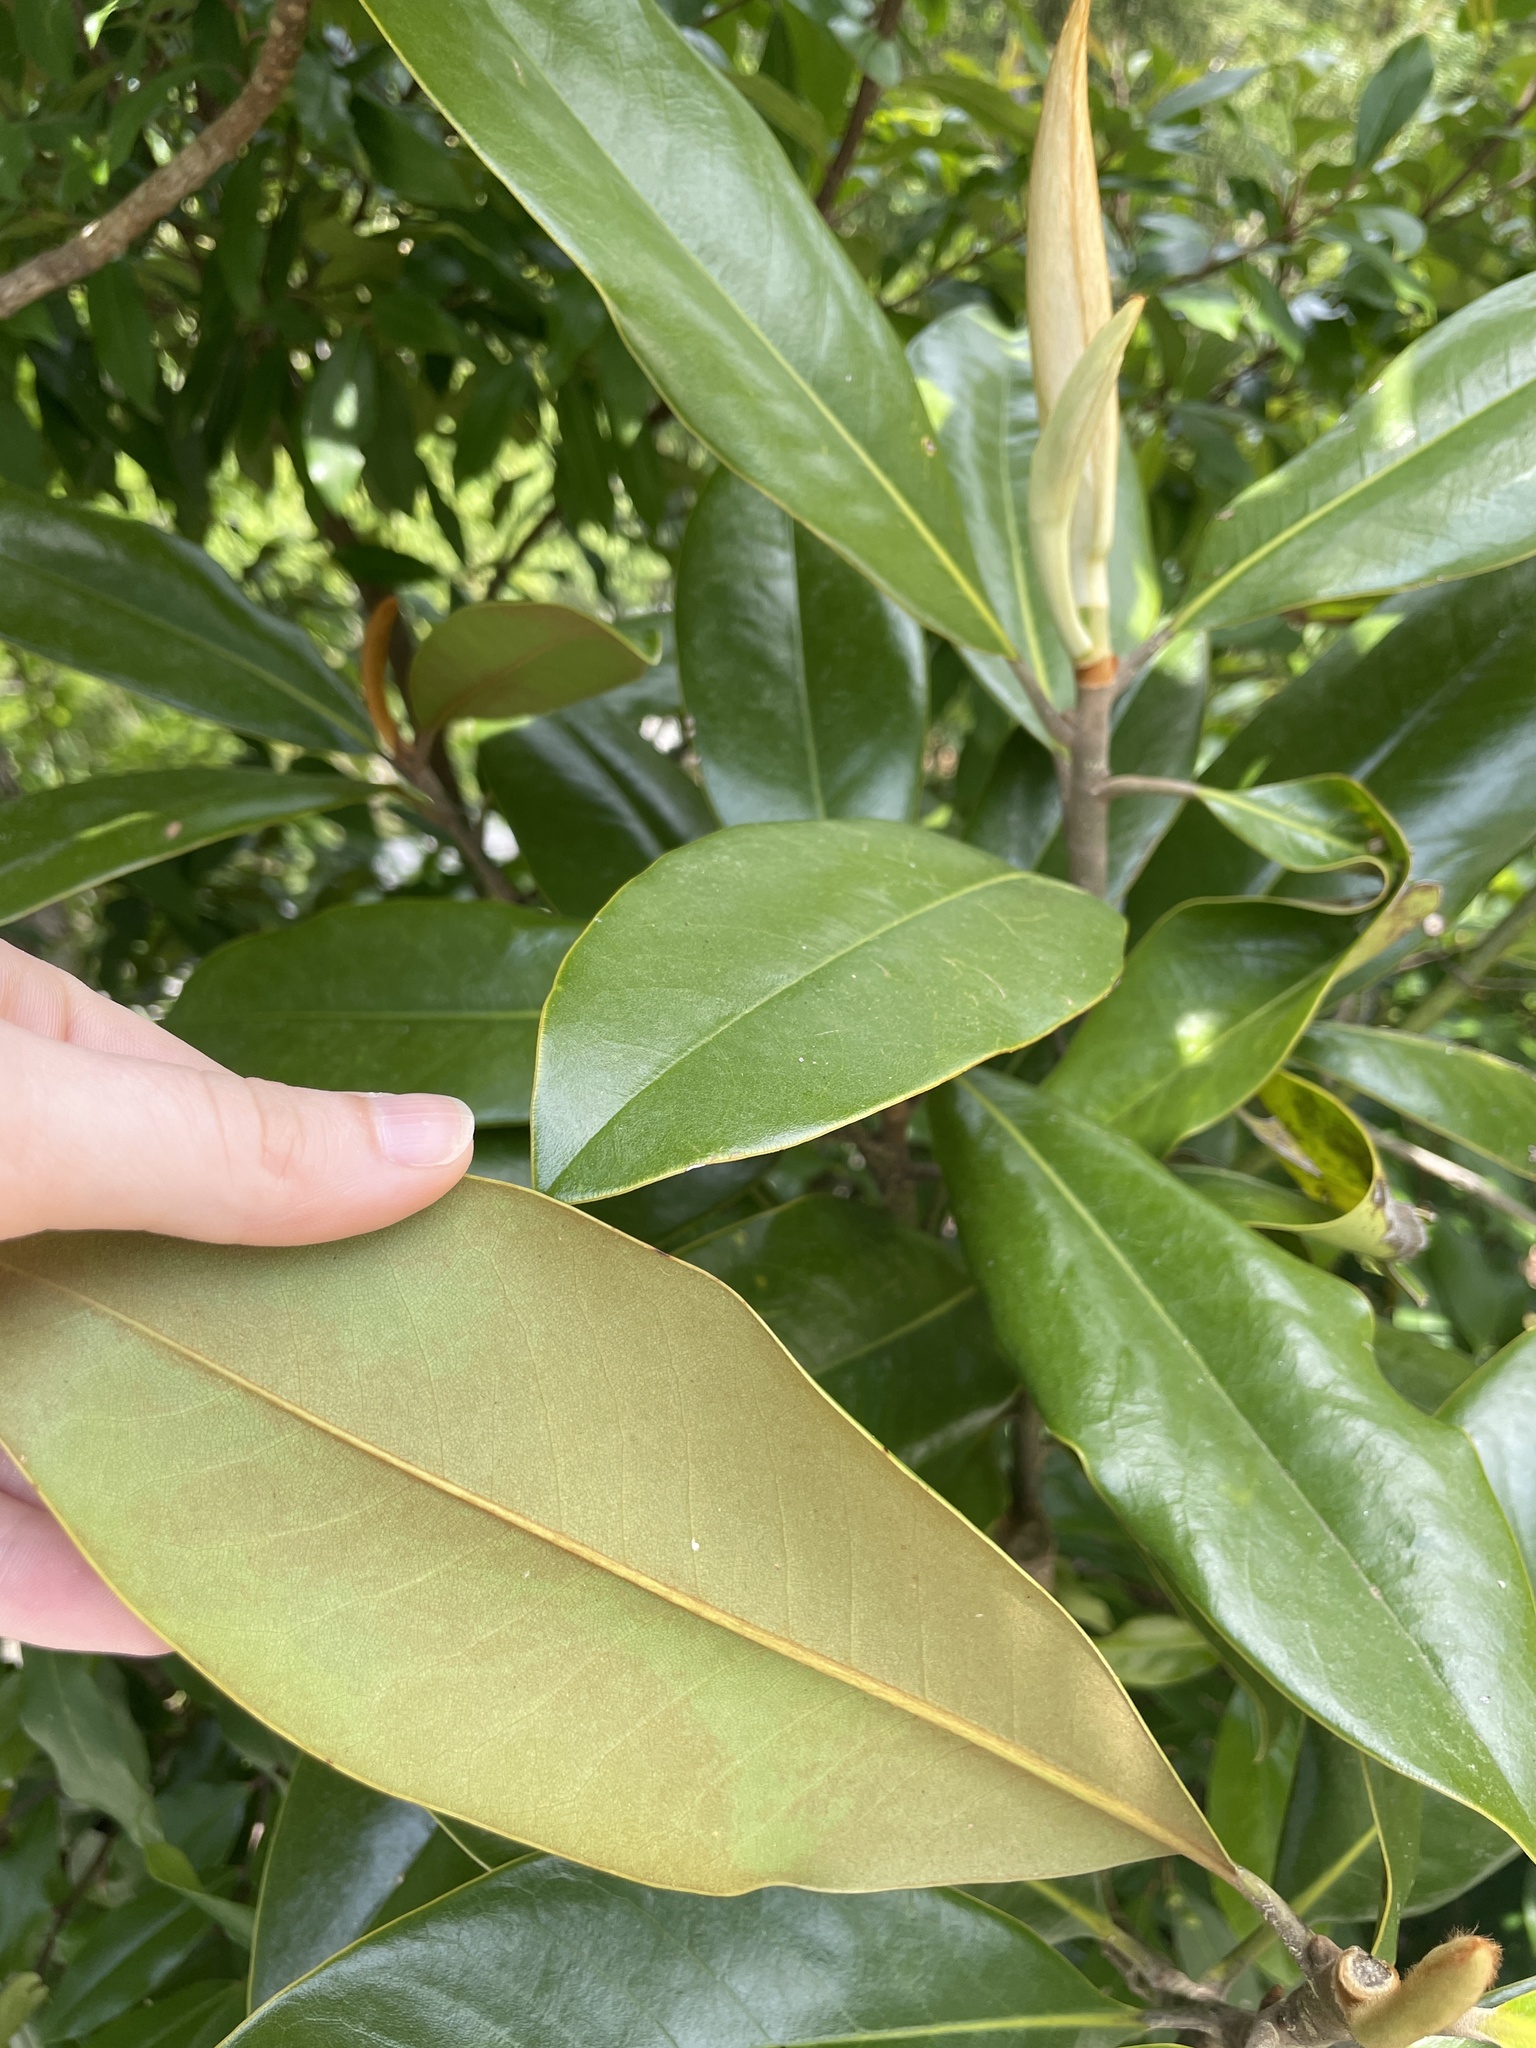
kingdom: Plantae
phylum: Tracheophyta
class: Magnoliopsida
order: Magnoliales
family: Magnoliaceae
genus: Magnolia
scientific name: Magnolia grandiflora
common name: Southern magnolia
